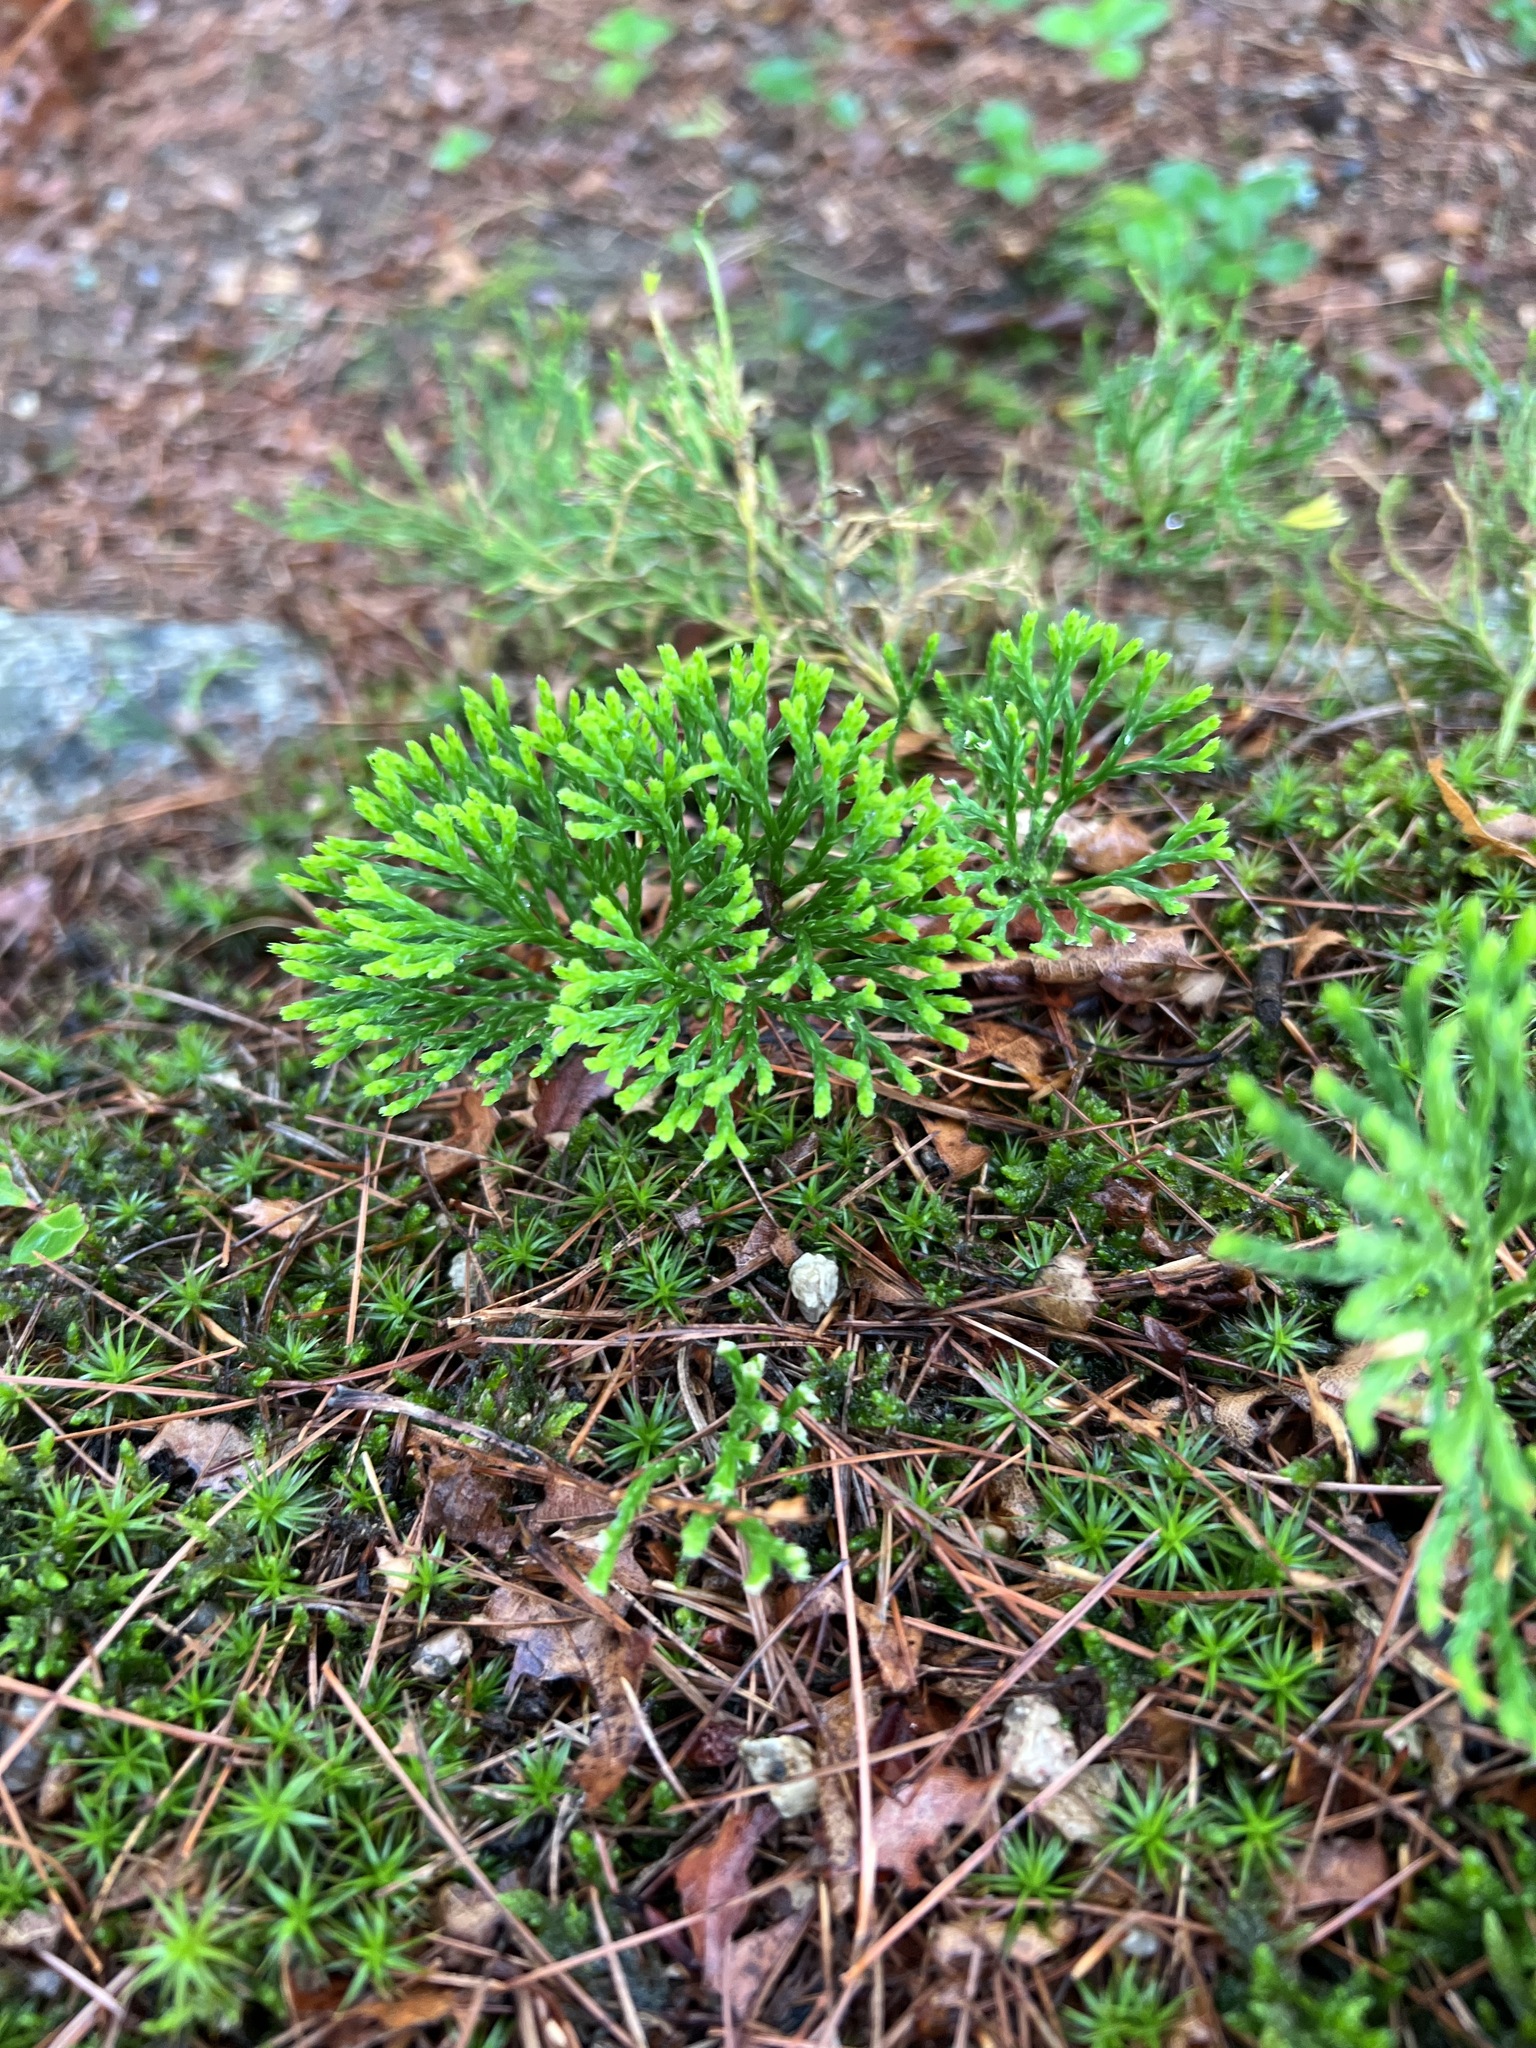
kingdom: Plantae
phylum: Tracheophyta
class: Lycopodiopsida
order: Lycopodiales
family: Lycopodiaceae
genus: Diphasiastrum
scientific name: Diphasiastrum tristachyum
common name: Blue ground-cedar
